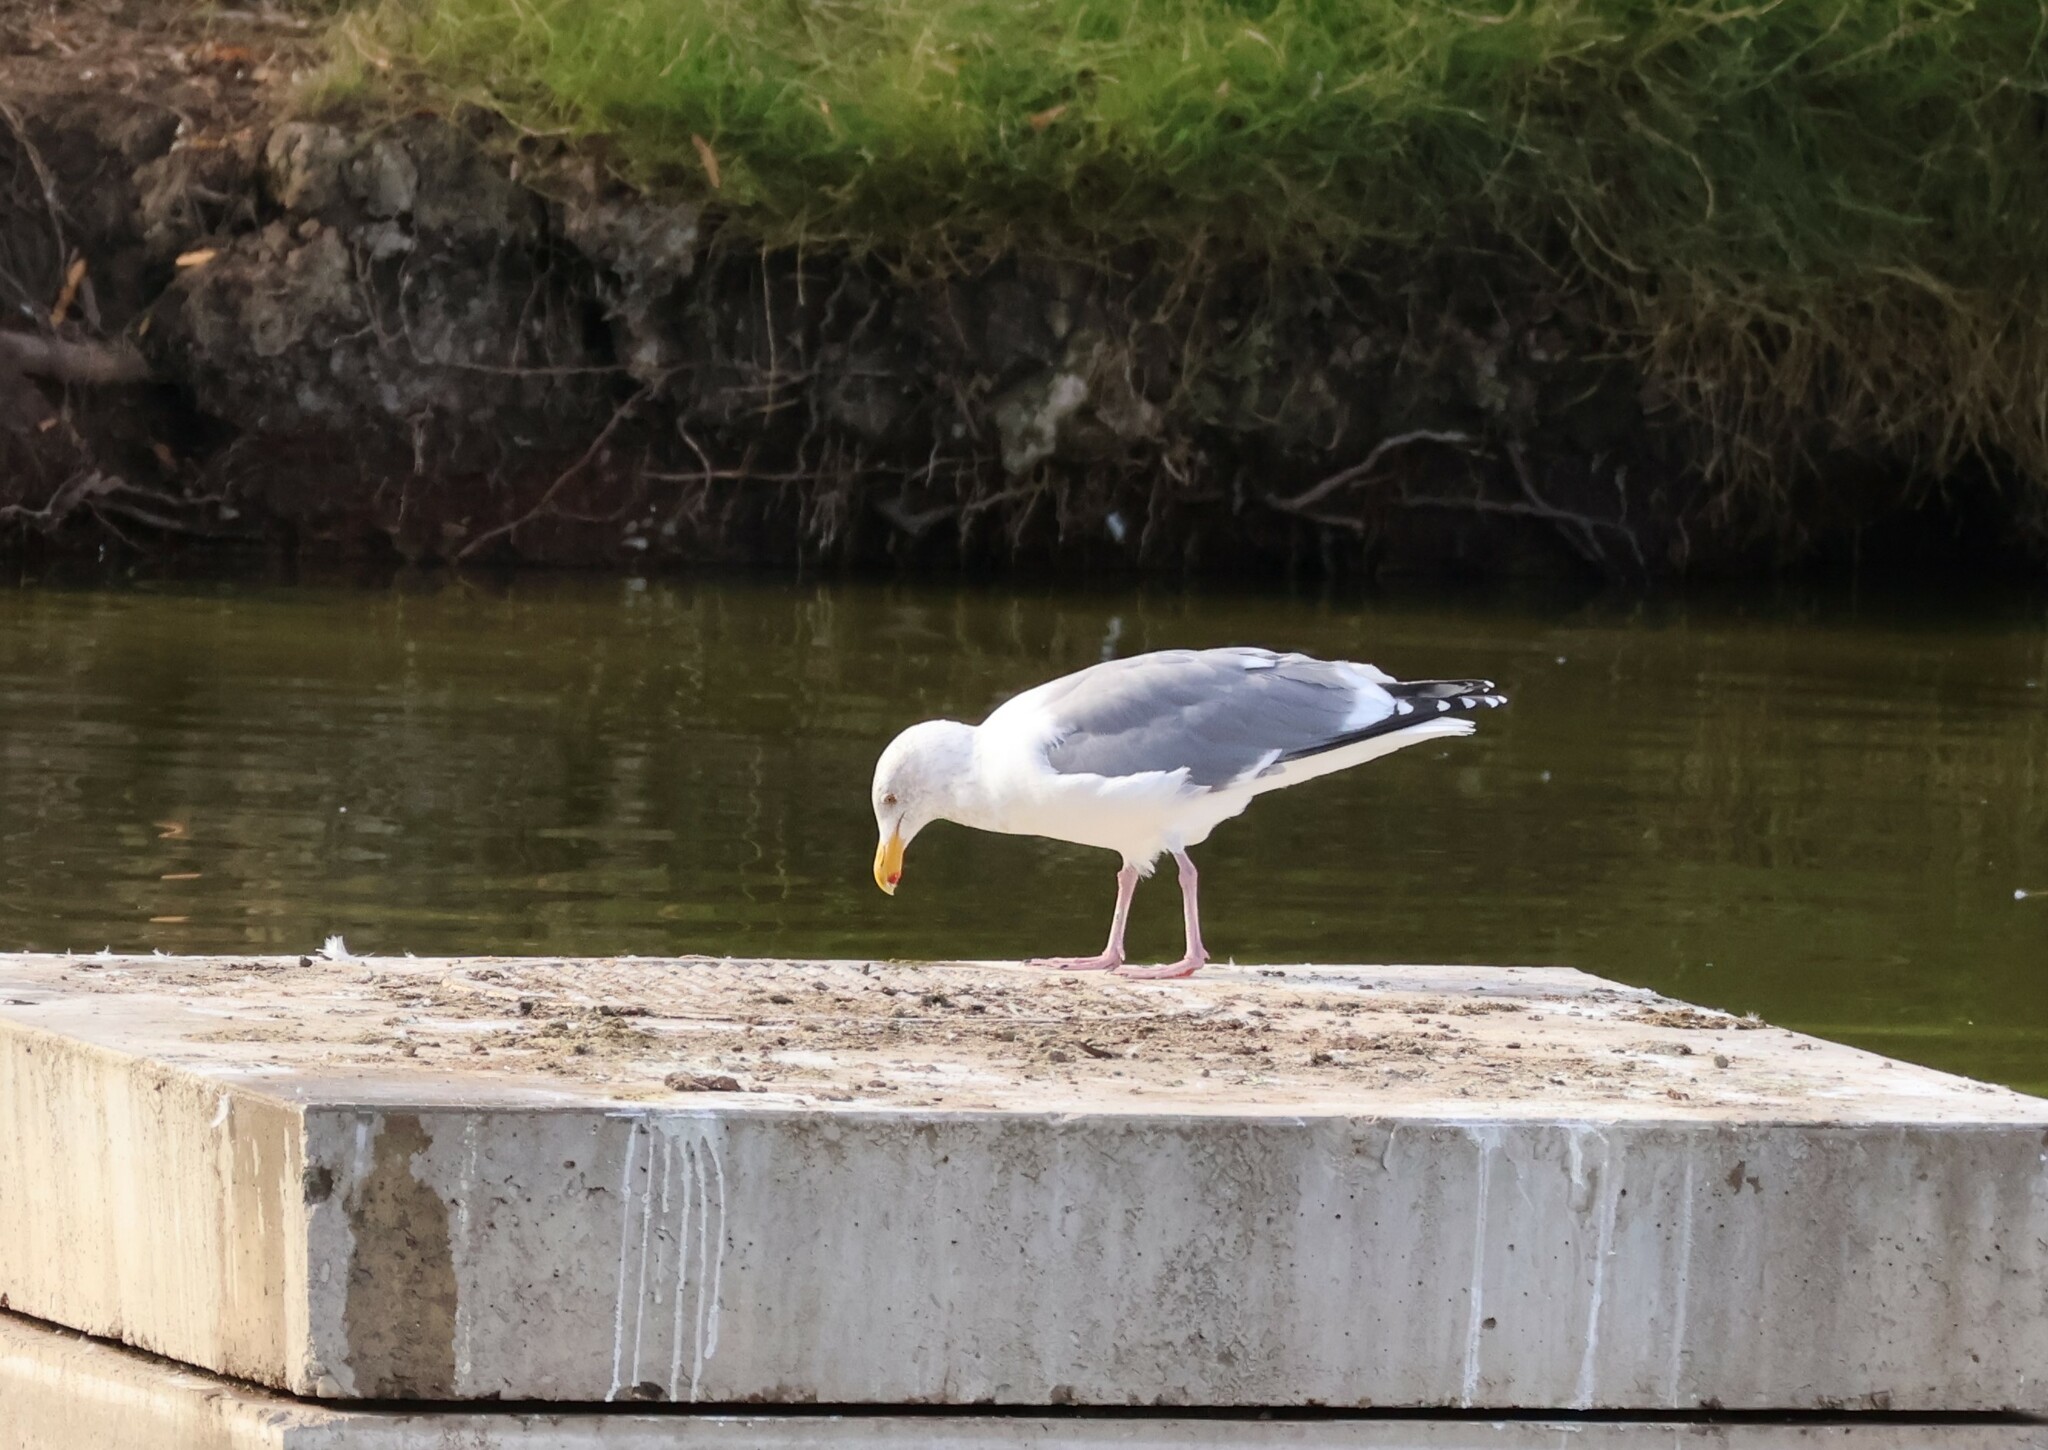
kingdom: Animalia
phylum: Chordata
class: Aves
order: Charadriiformes
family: Laridae
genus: Larus
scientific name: Larus occidentalis
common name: Western gull
